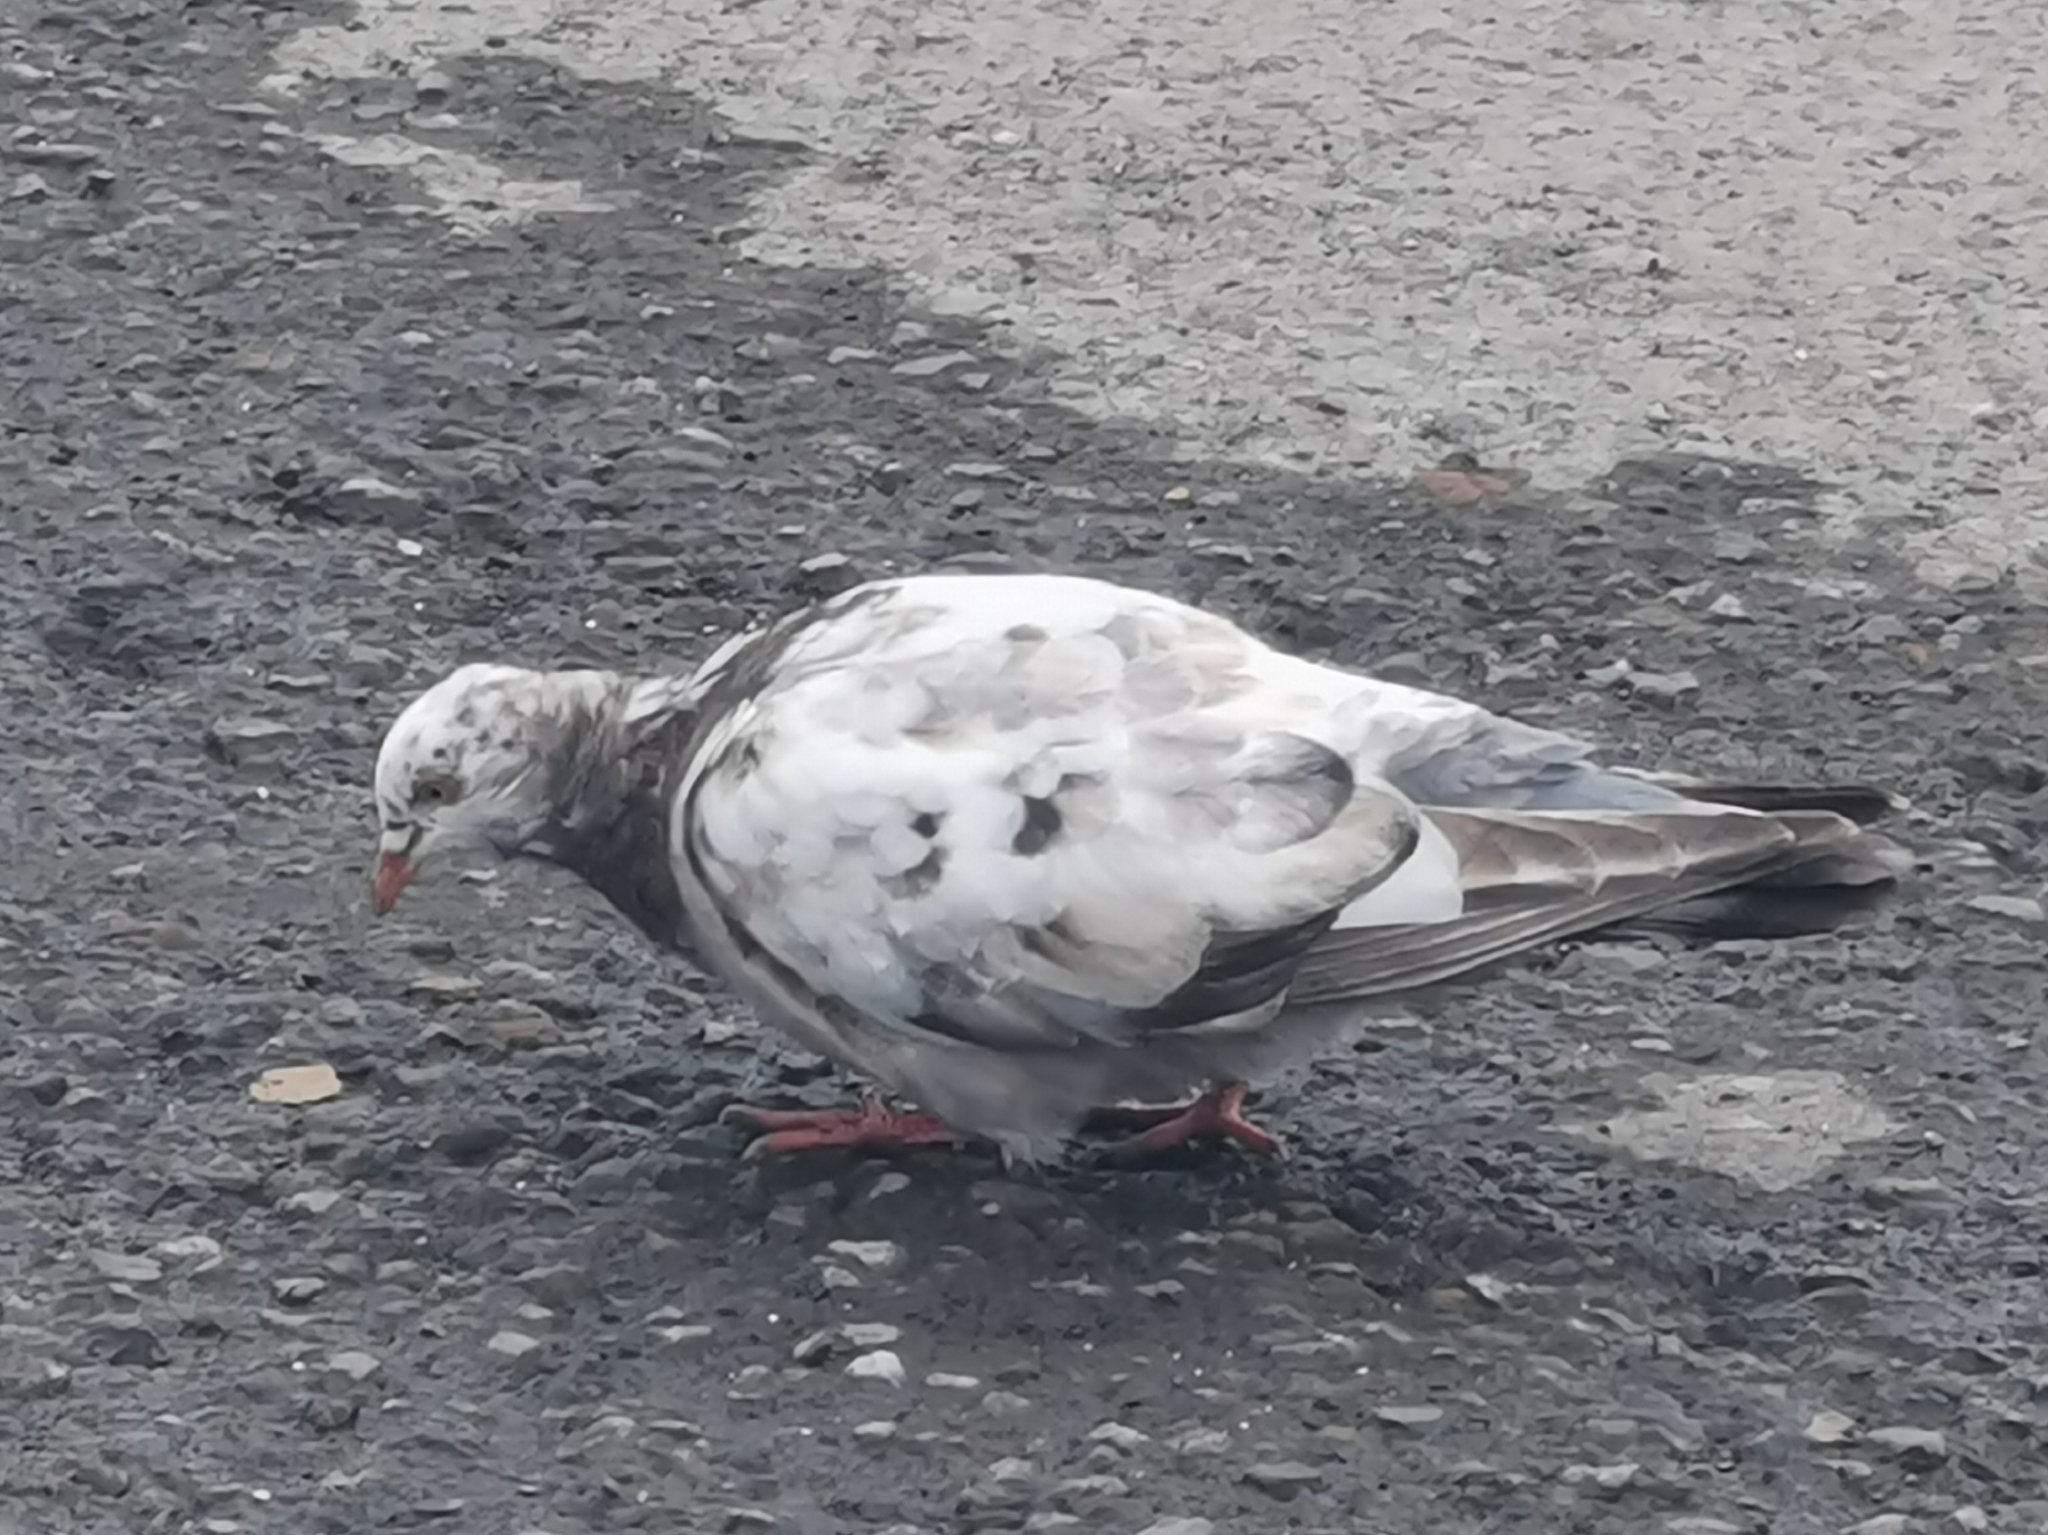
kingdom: Animalia
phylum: Chordata
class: Aves
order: Columbiformes
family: Columbidae
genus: Columba
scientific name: Columba livia
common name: Rock pigeon
